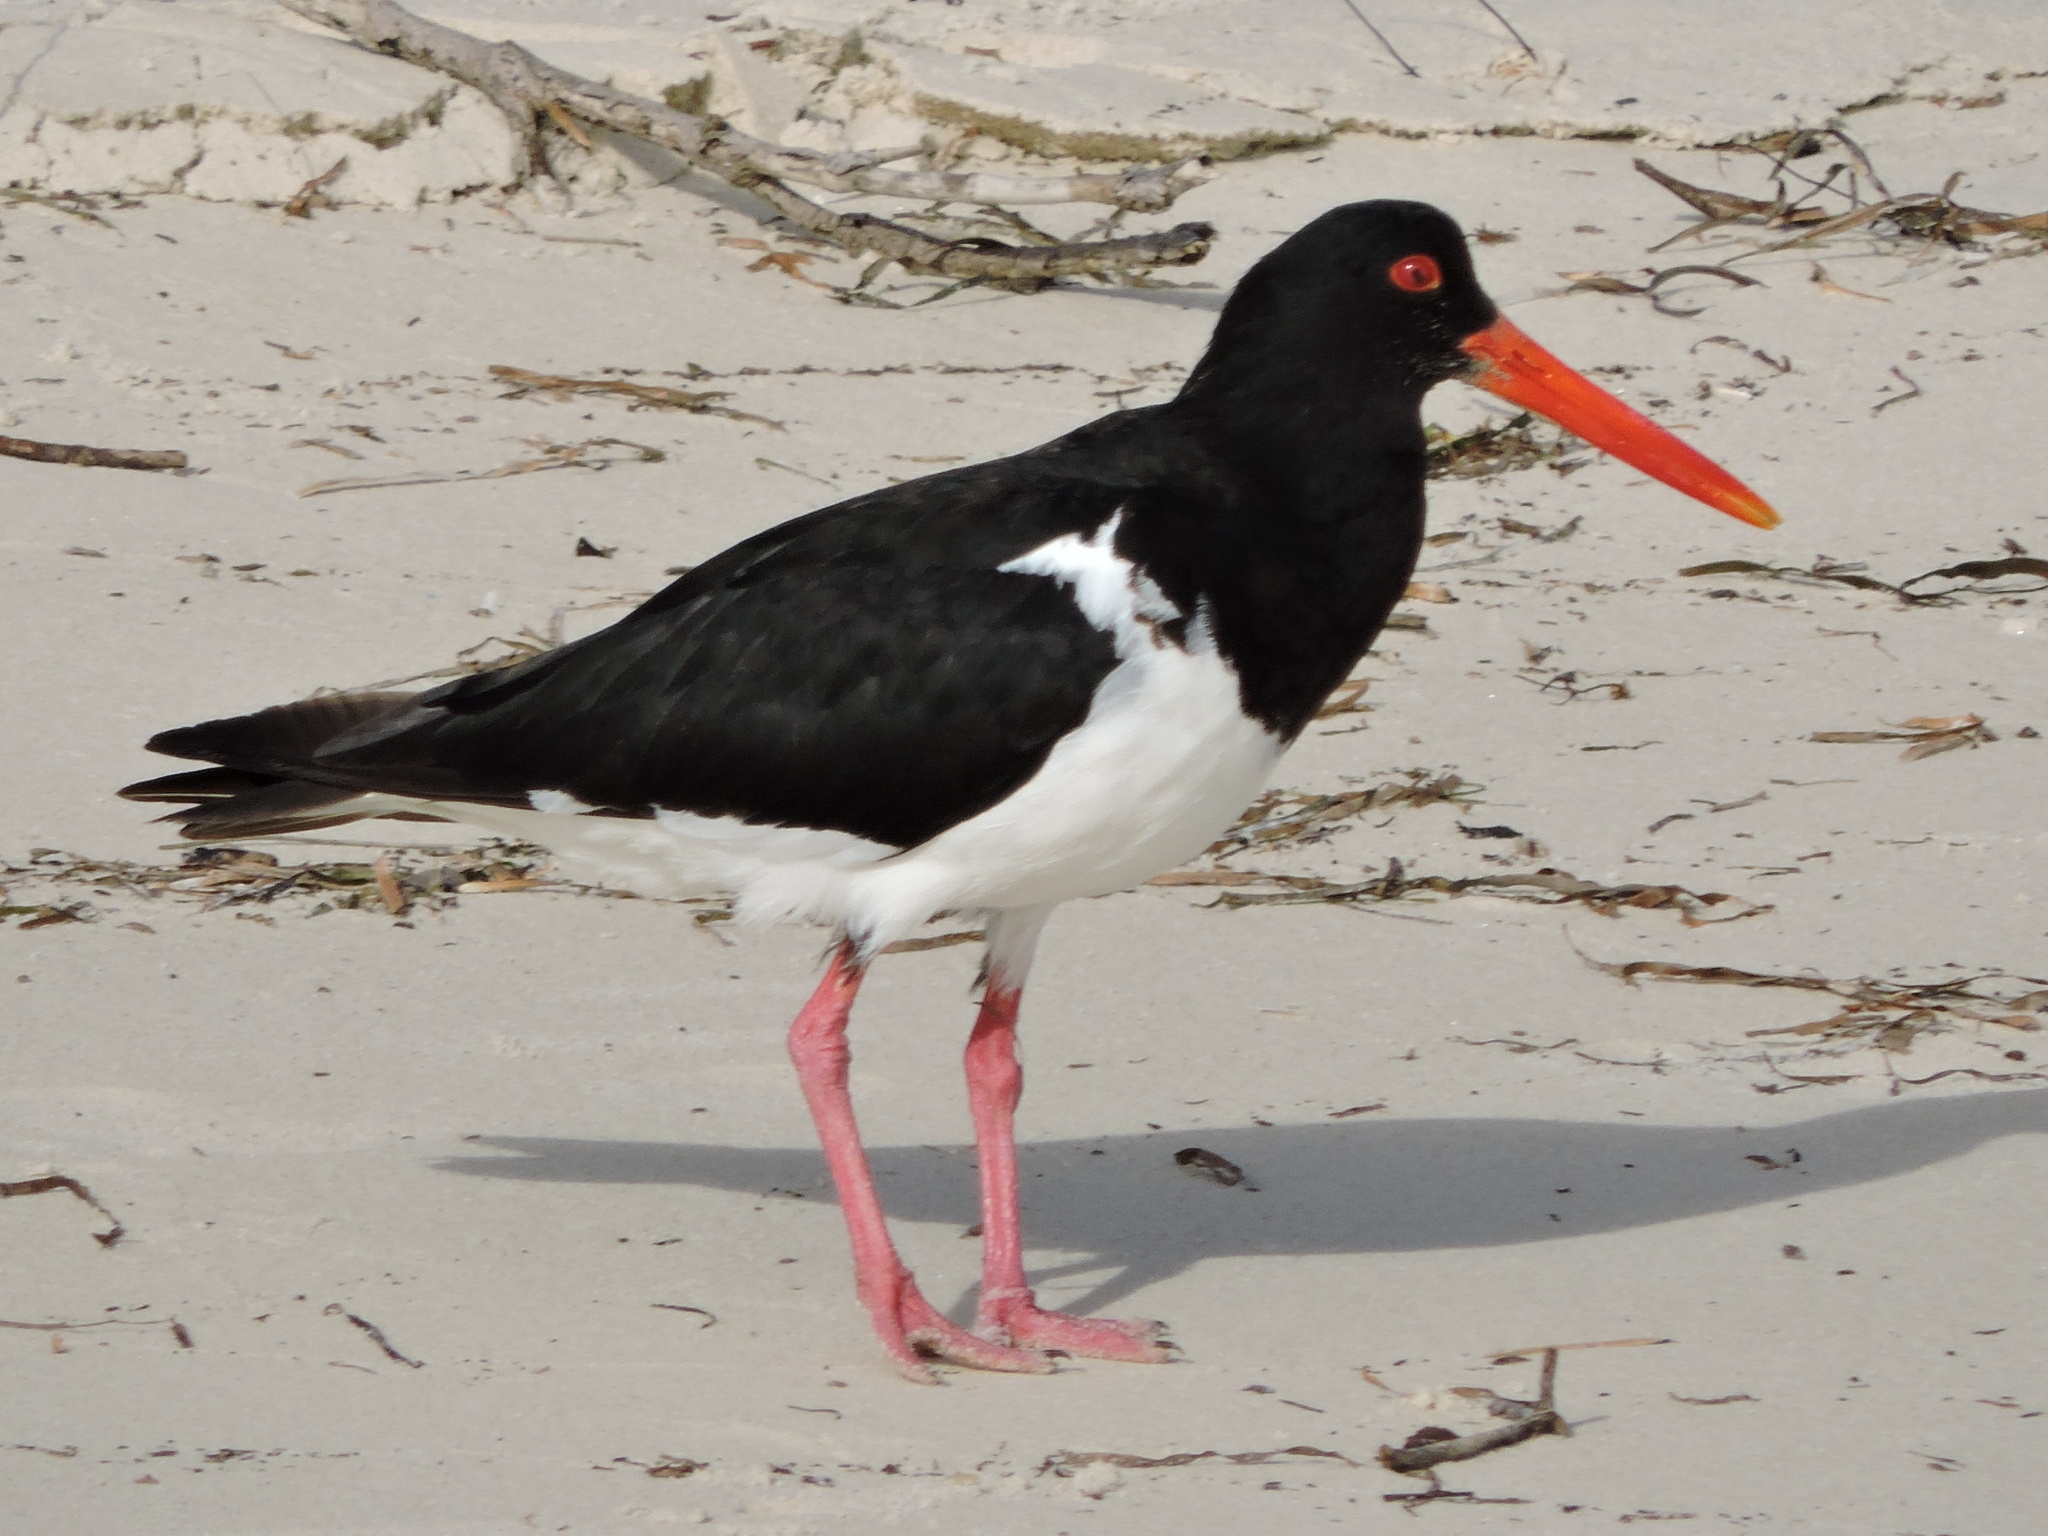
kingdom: Animalia
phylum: Chordata
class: Aves
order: Charadriiformes
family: Haematopodidae
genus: Haematopus
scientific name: Haematopus longirostris
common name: Pied oystercatcher
